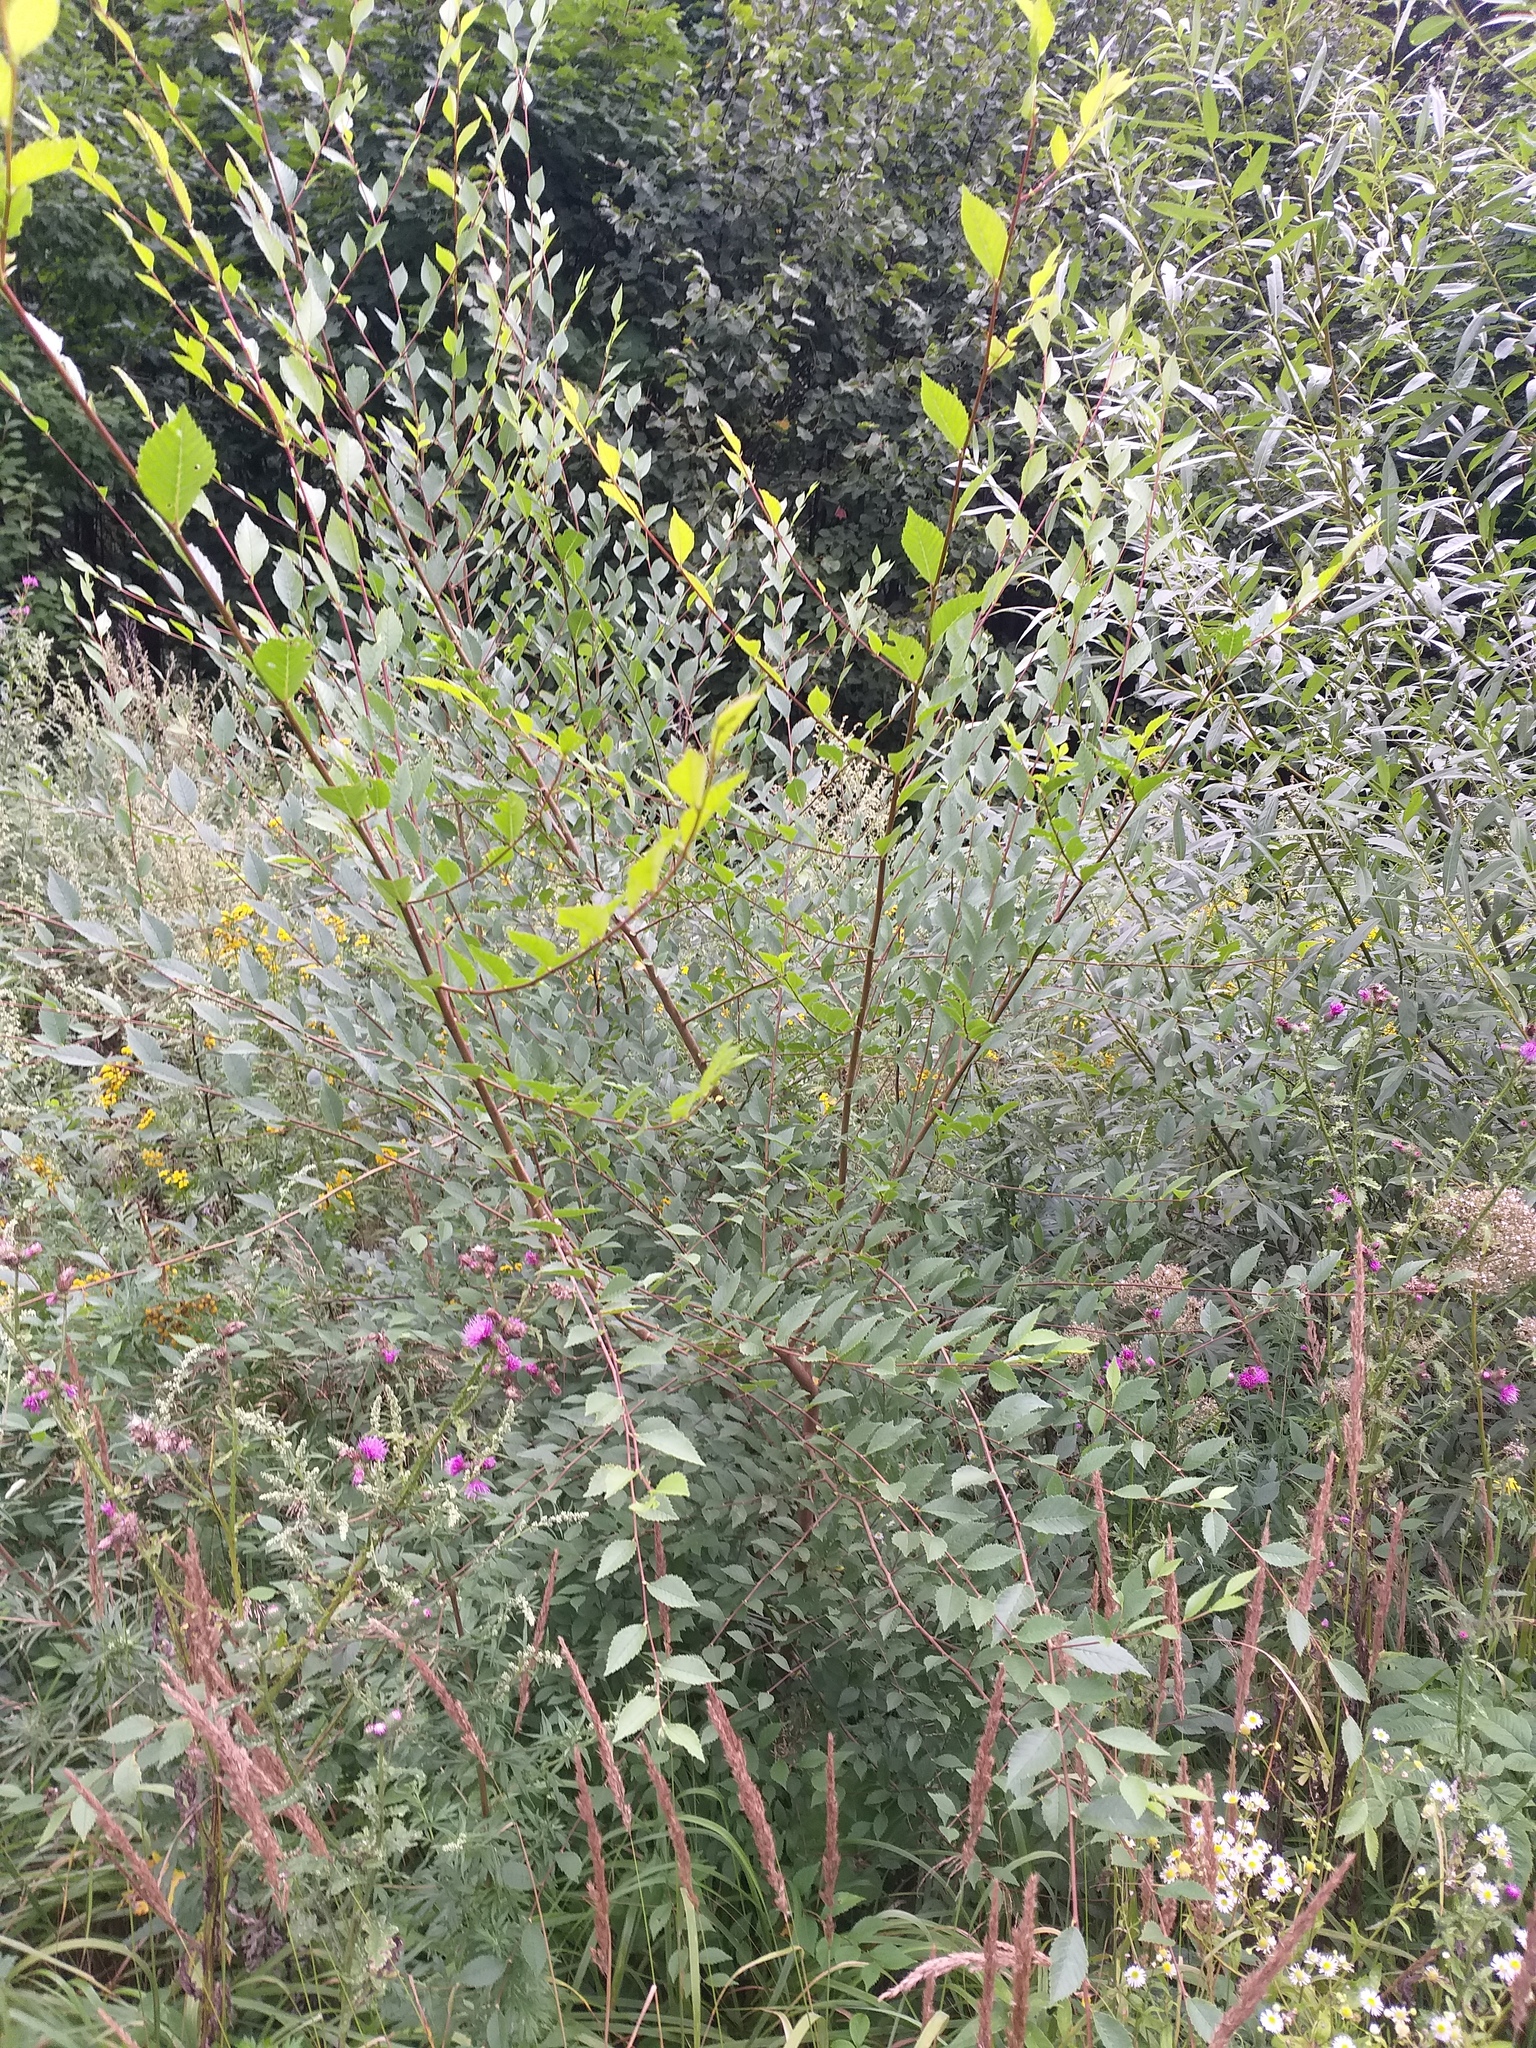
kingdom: Plantae
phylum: Tracheophyta
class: Magnoliopsida
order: Rosales
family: Ulmaceae
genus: Ulmus
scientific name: Ulmus pumila
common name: Siberian elm
